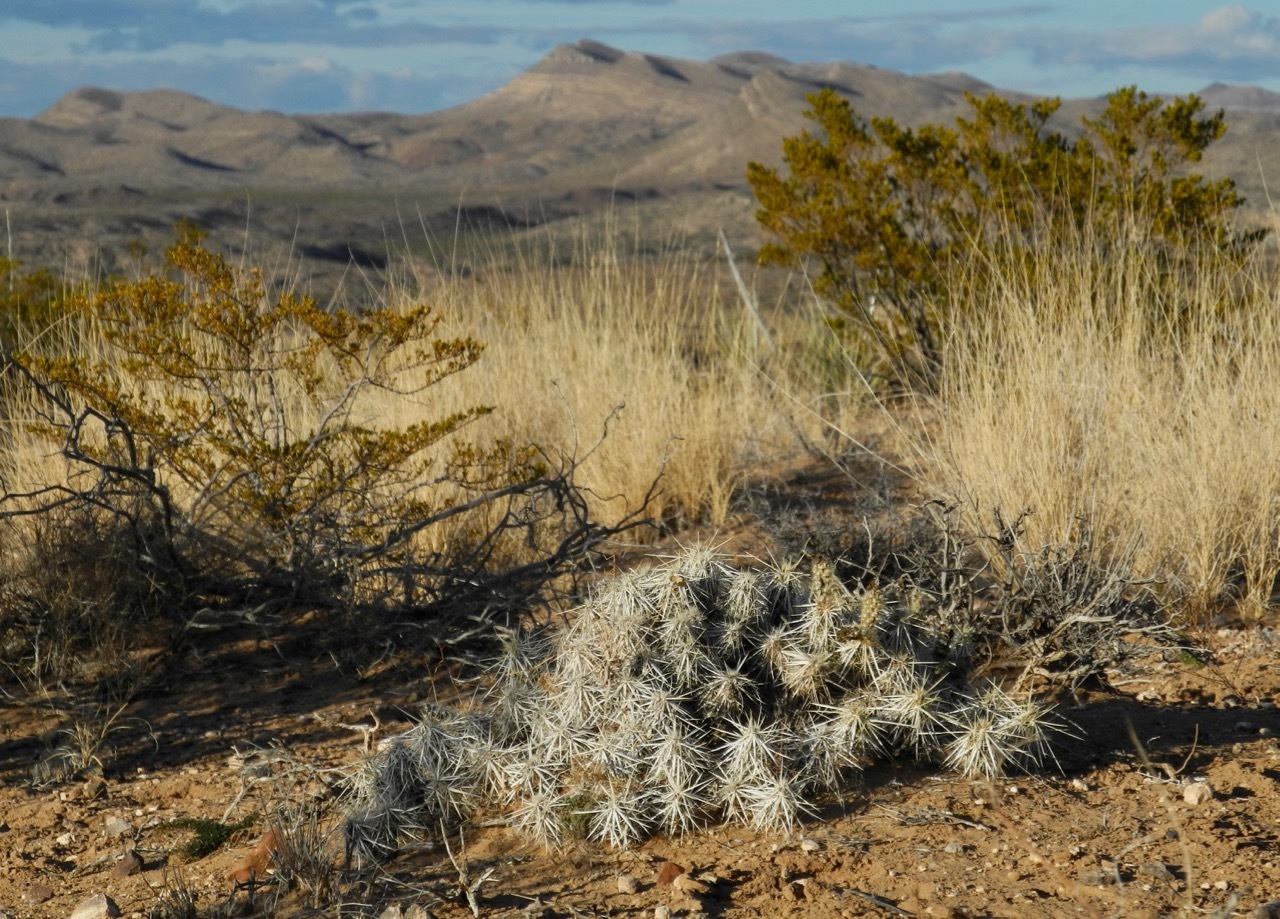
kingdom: Plantae
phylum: Tracheophyta
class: Magnoliopsida
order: Caryophyllales
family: Cactaceae
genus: Grusonia
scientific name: Grusonia clavata
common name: Club cholla
